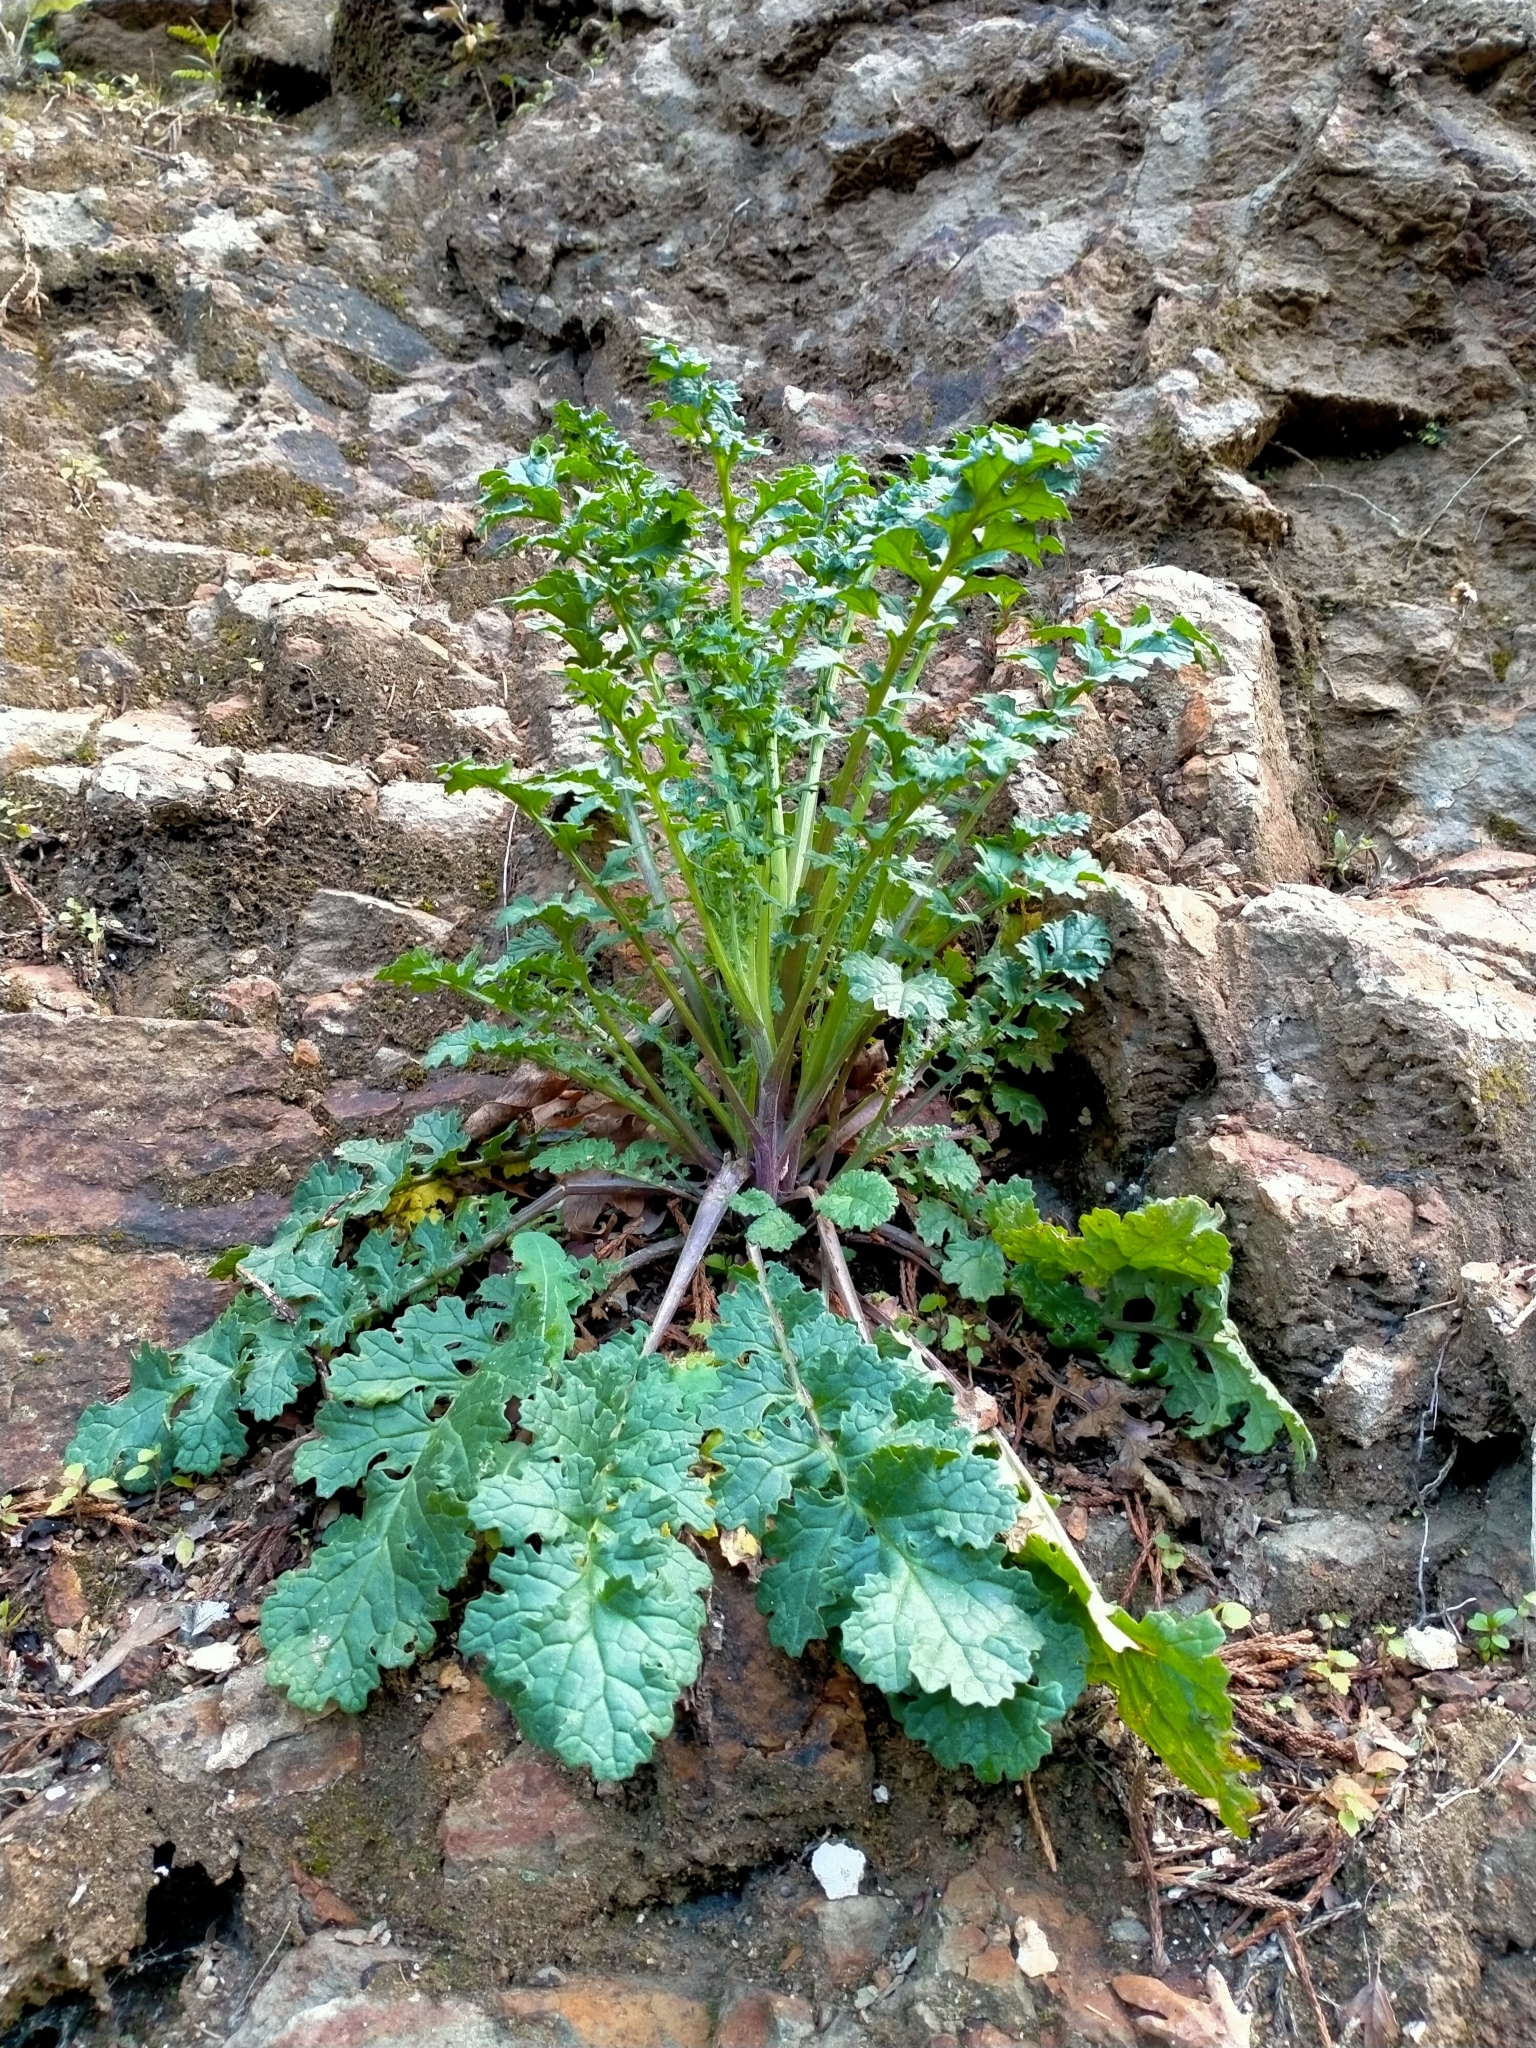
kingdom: Plantae
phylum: Tracheophyta
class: Magnoliopsida
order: Asterales
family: Asteraceae
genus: Jacobaea
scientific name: Jacobaea vulgaris
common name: Stinking willie
